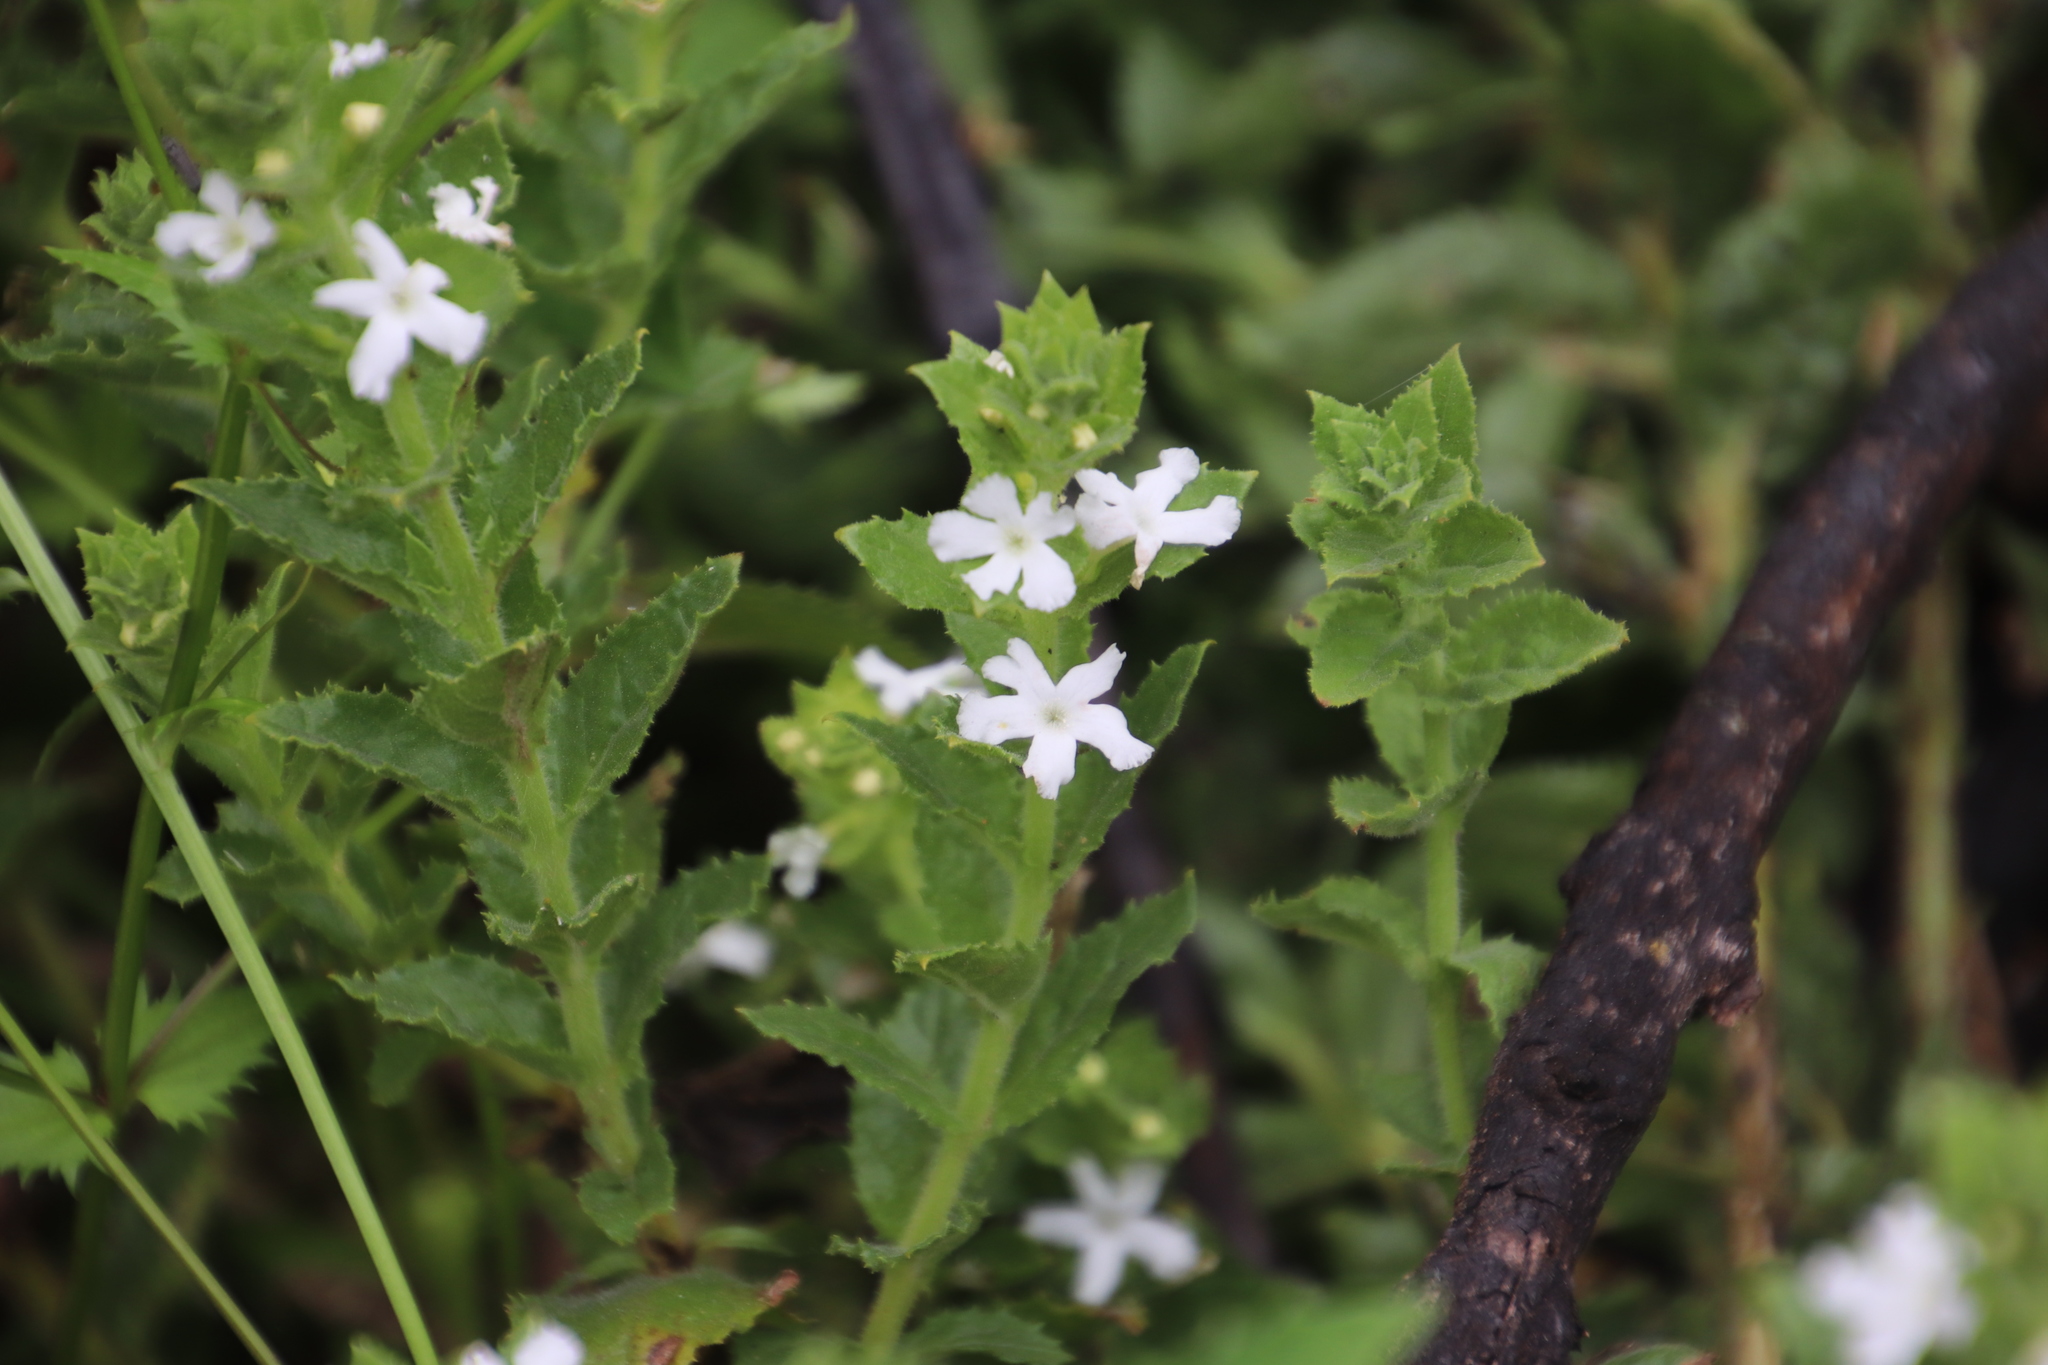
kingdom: Plantae
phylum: Tracheophyta
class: Magnoliopsida
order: Lamiales
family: Scrophulariaceae
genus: Oftia
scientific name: Oftia africana
